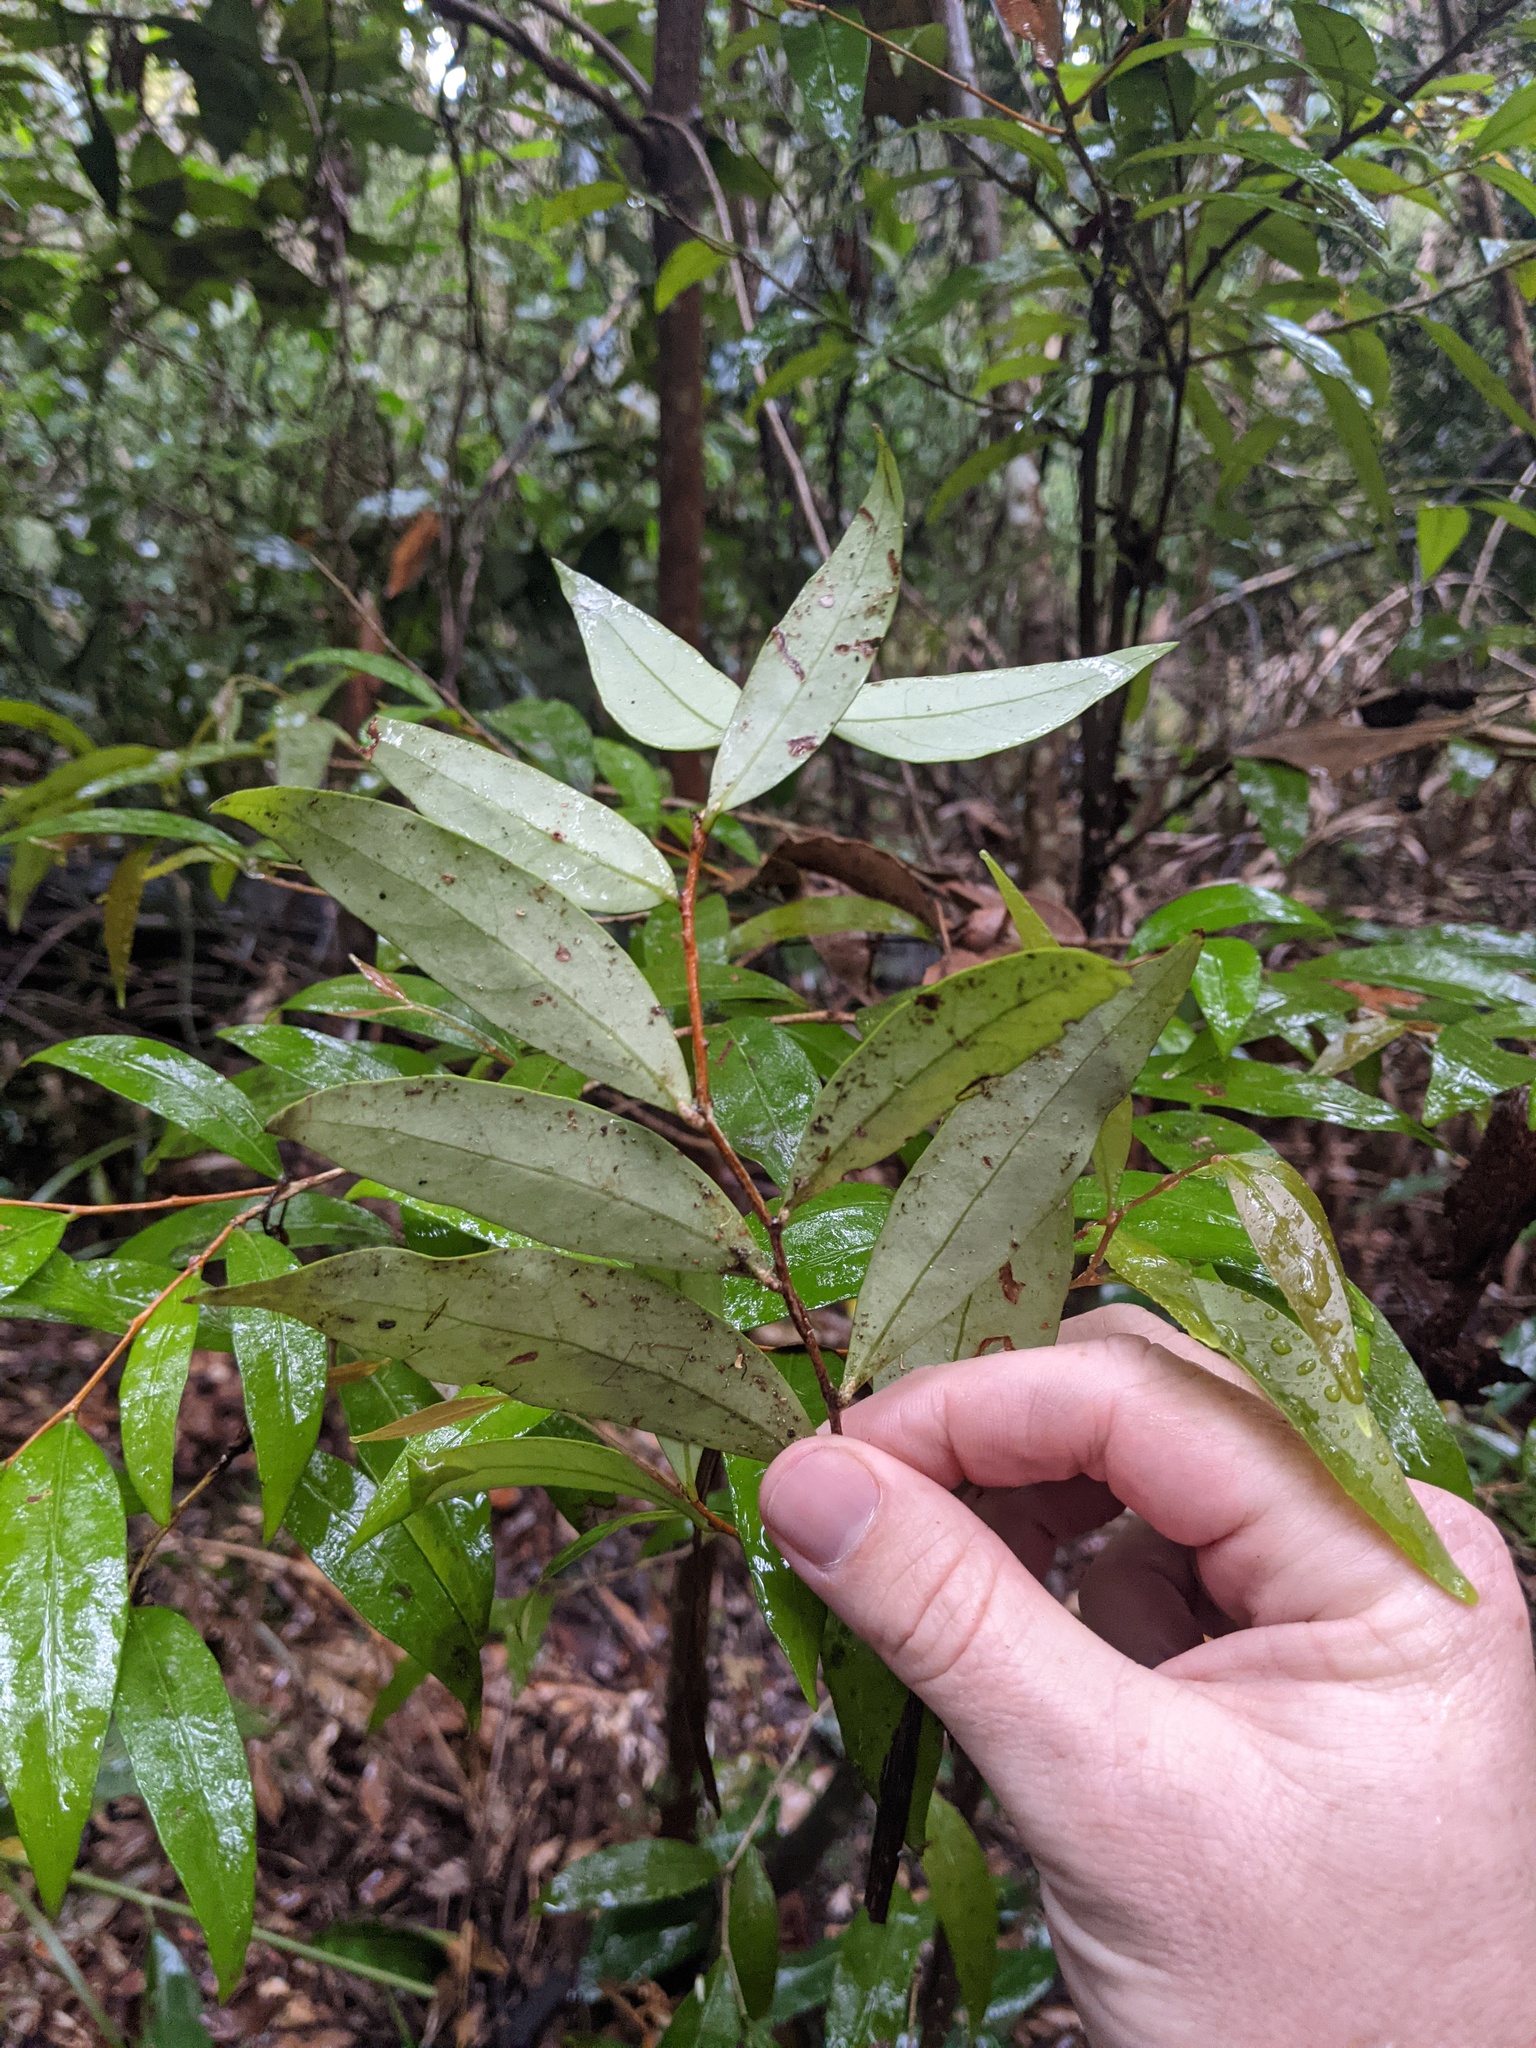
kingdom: Plantae
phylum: Tracheophyta
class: Magnoliopsida
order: Celastrales
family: Celastraceae
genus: Hedraianthera
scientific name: Hedraianthera porphyropetala
